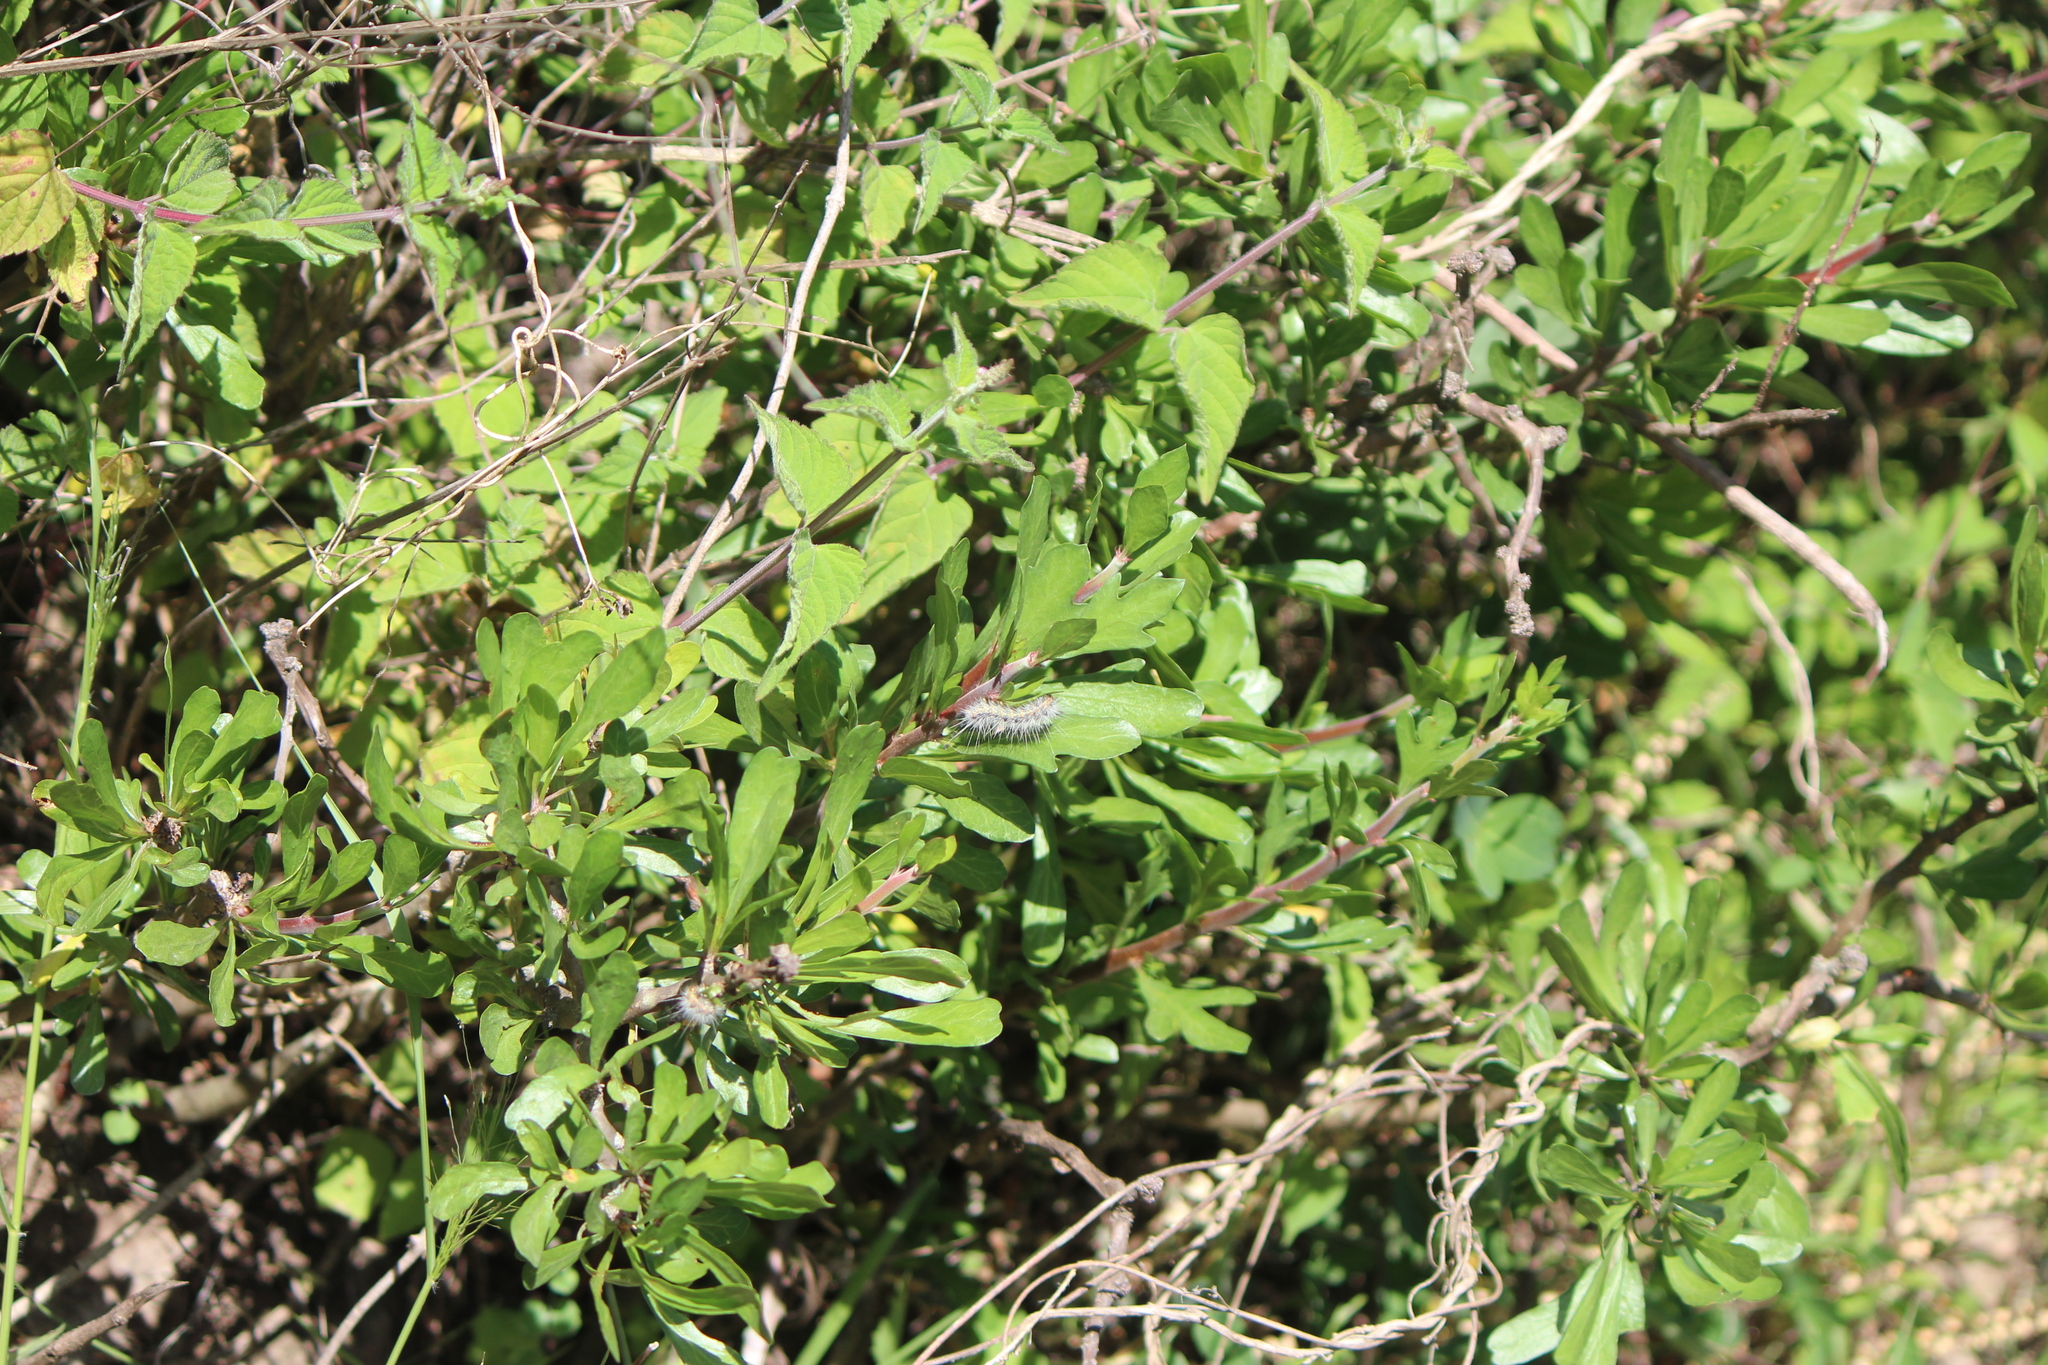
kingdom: Animalia
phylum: Arthropoda
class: Insecta
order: Lepidoptera
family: Erebidae
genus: Estigmene
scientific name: Estigmene acrea
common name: Salt marsh moth
